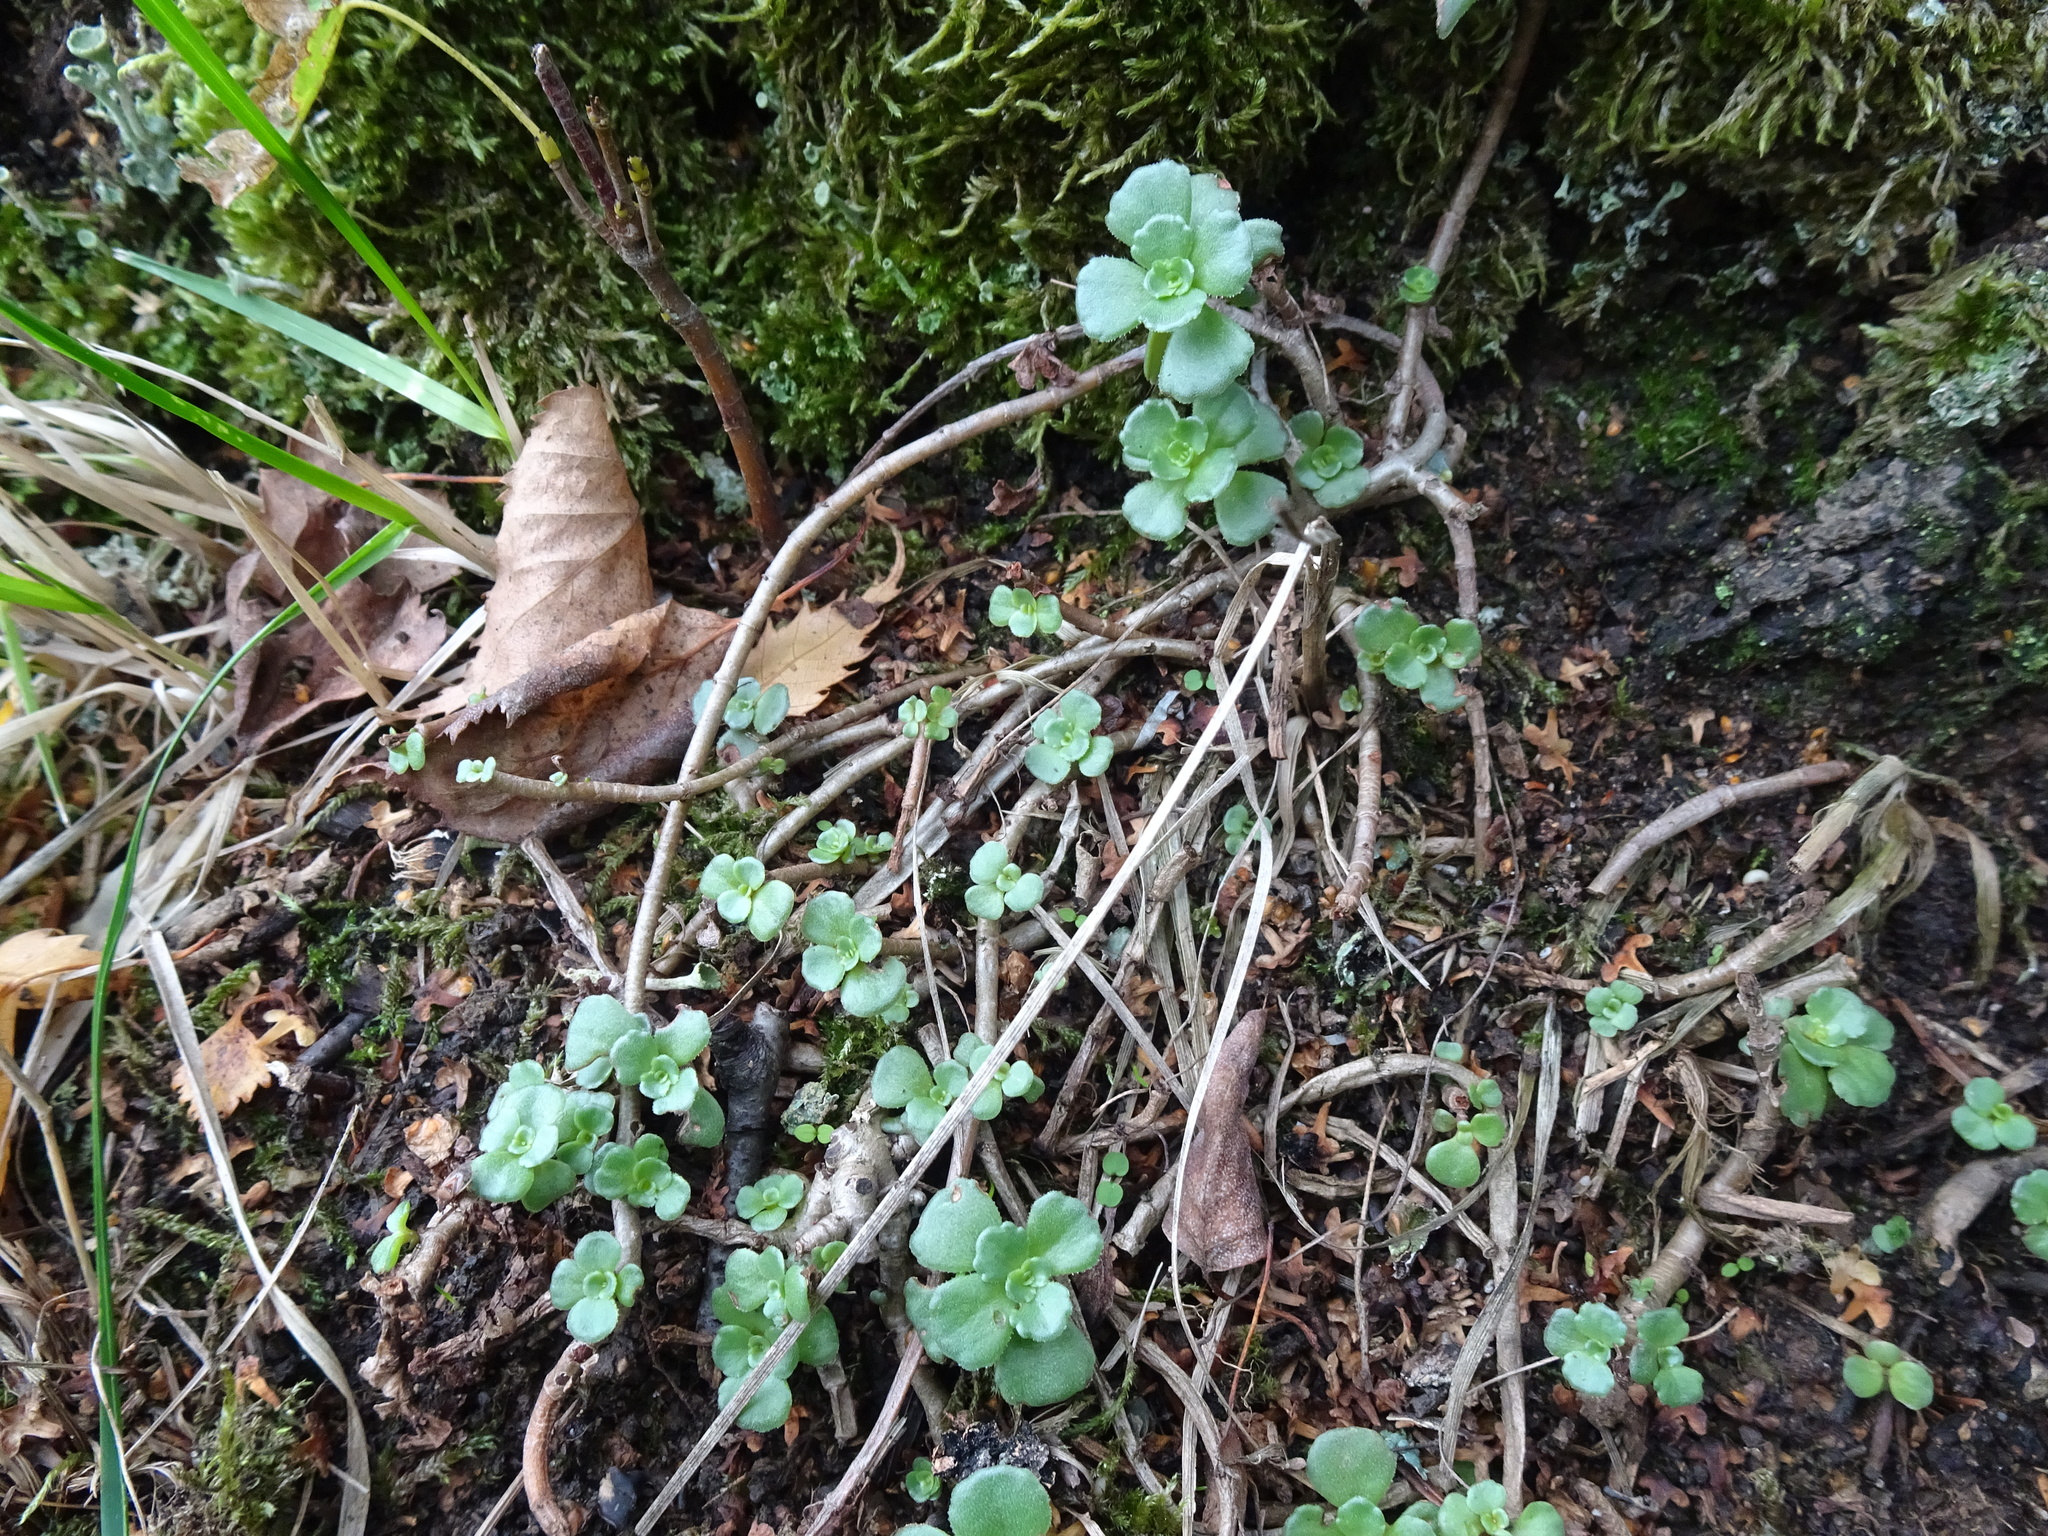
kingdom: Plantae
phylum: Tracheophyta
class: Magnoliopsida
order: Saxifragales
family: Crassulaceae
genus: Phedimus
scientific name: Phedimus spurius
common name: Caucasian stonecrop
